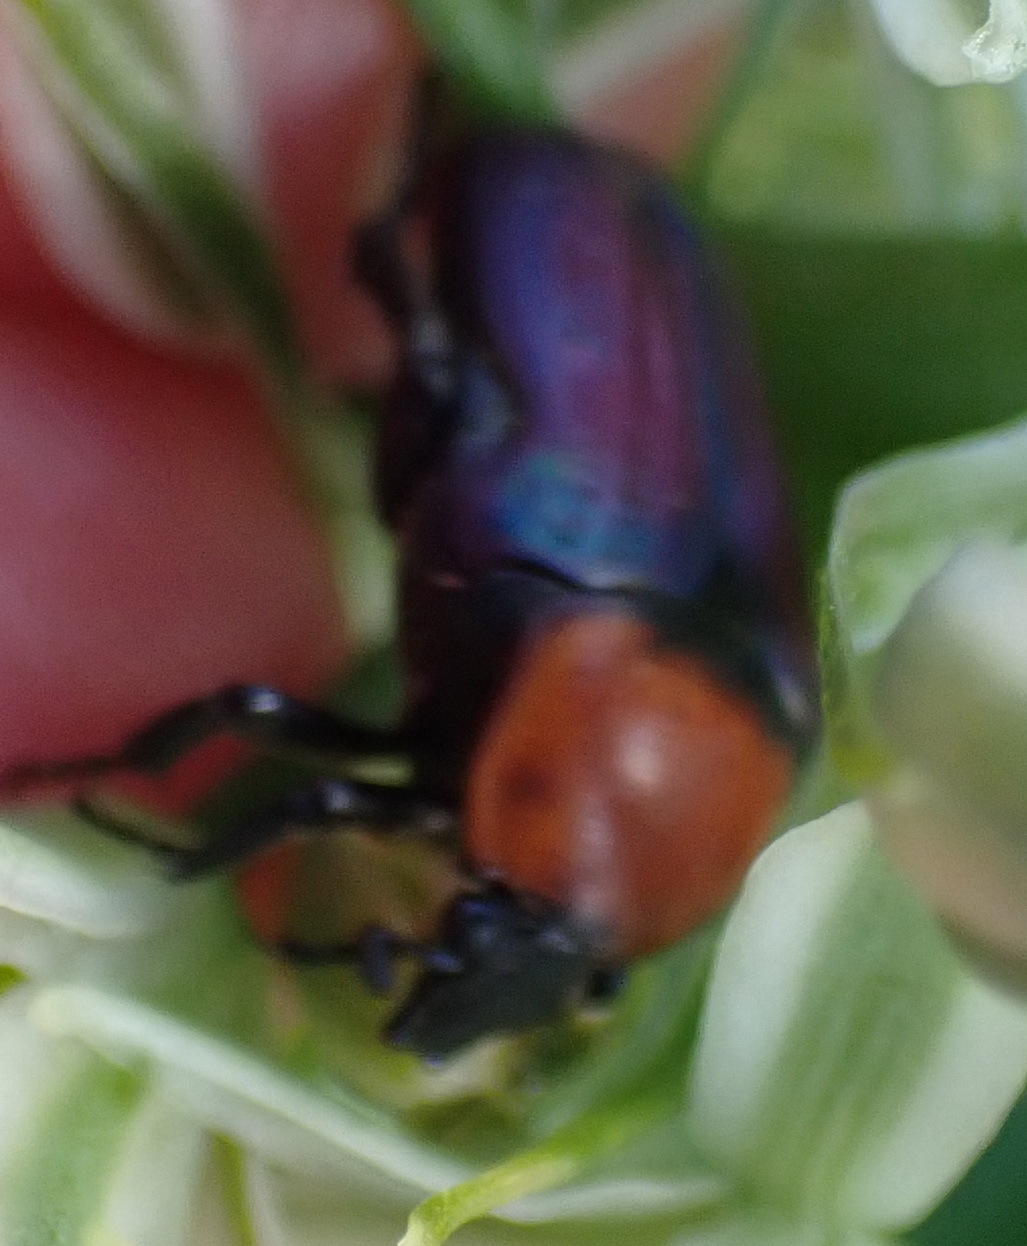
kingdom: Animalia
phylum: Arthropoda
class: Insecta
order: Coleoptera
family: Scarabaeidae
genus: Leucocelis
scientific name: Leucocelis amethystina
